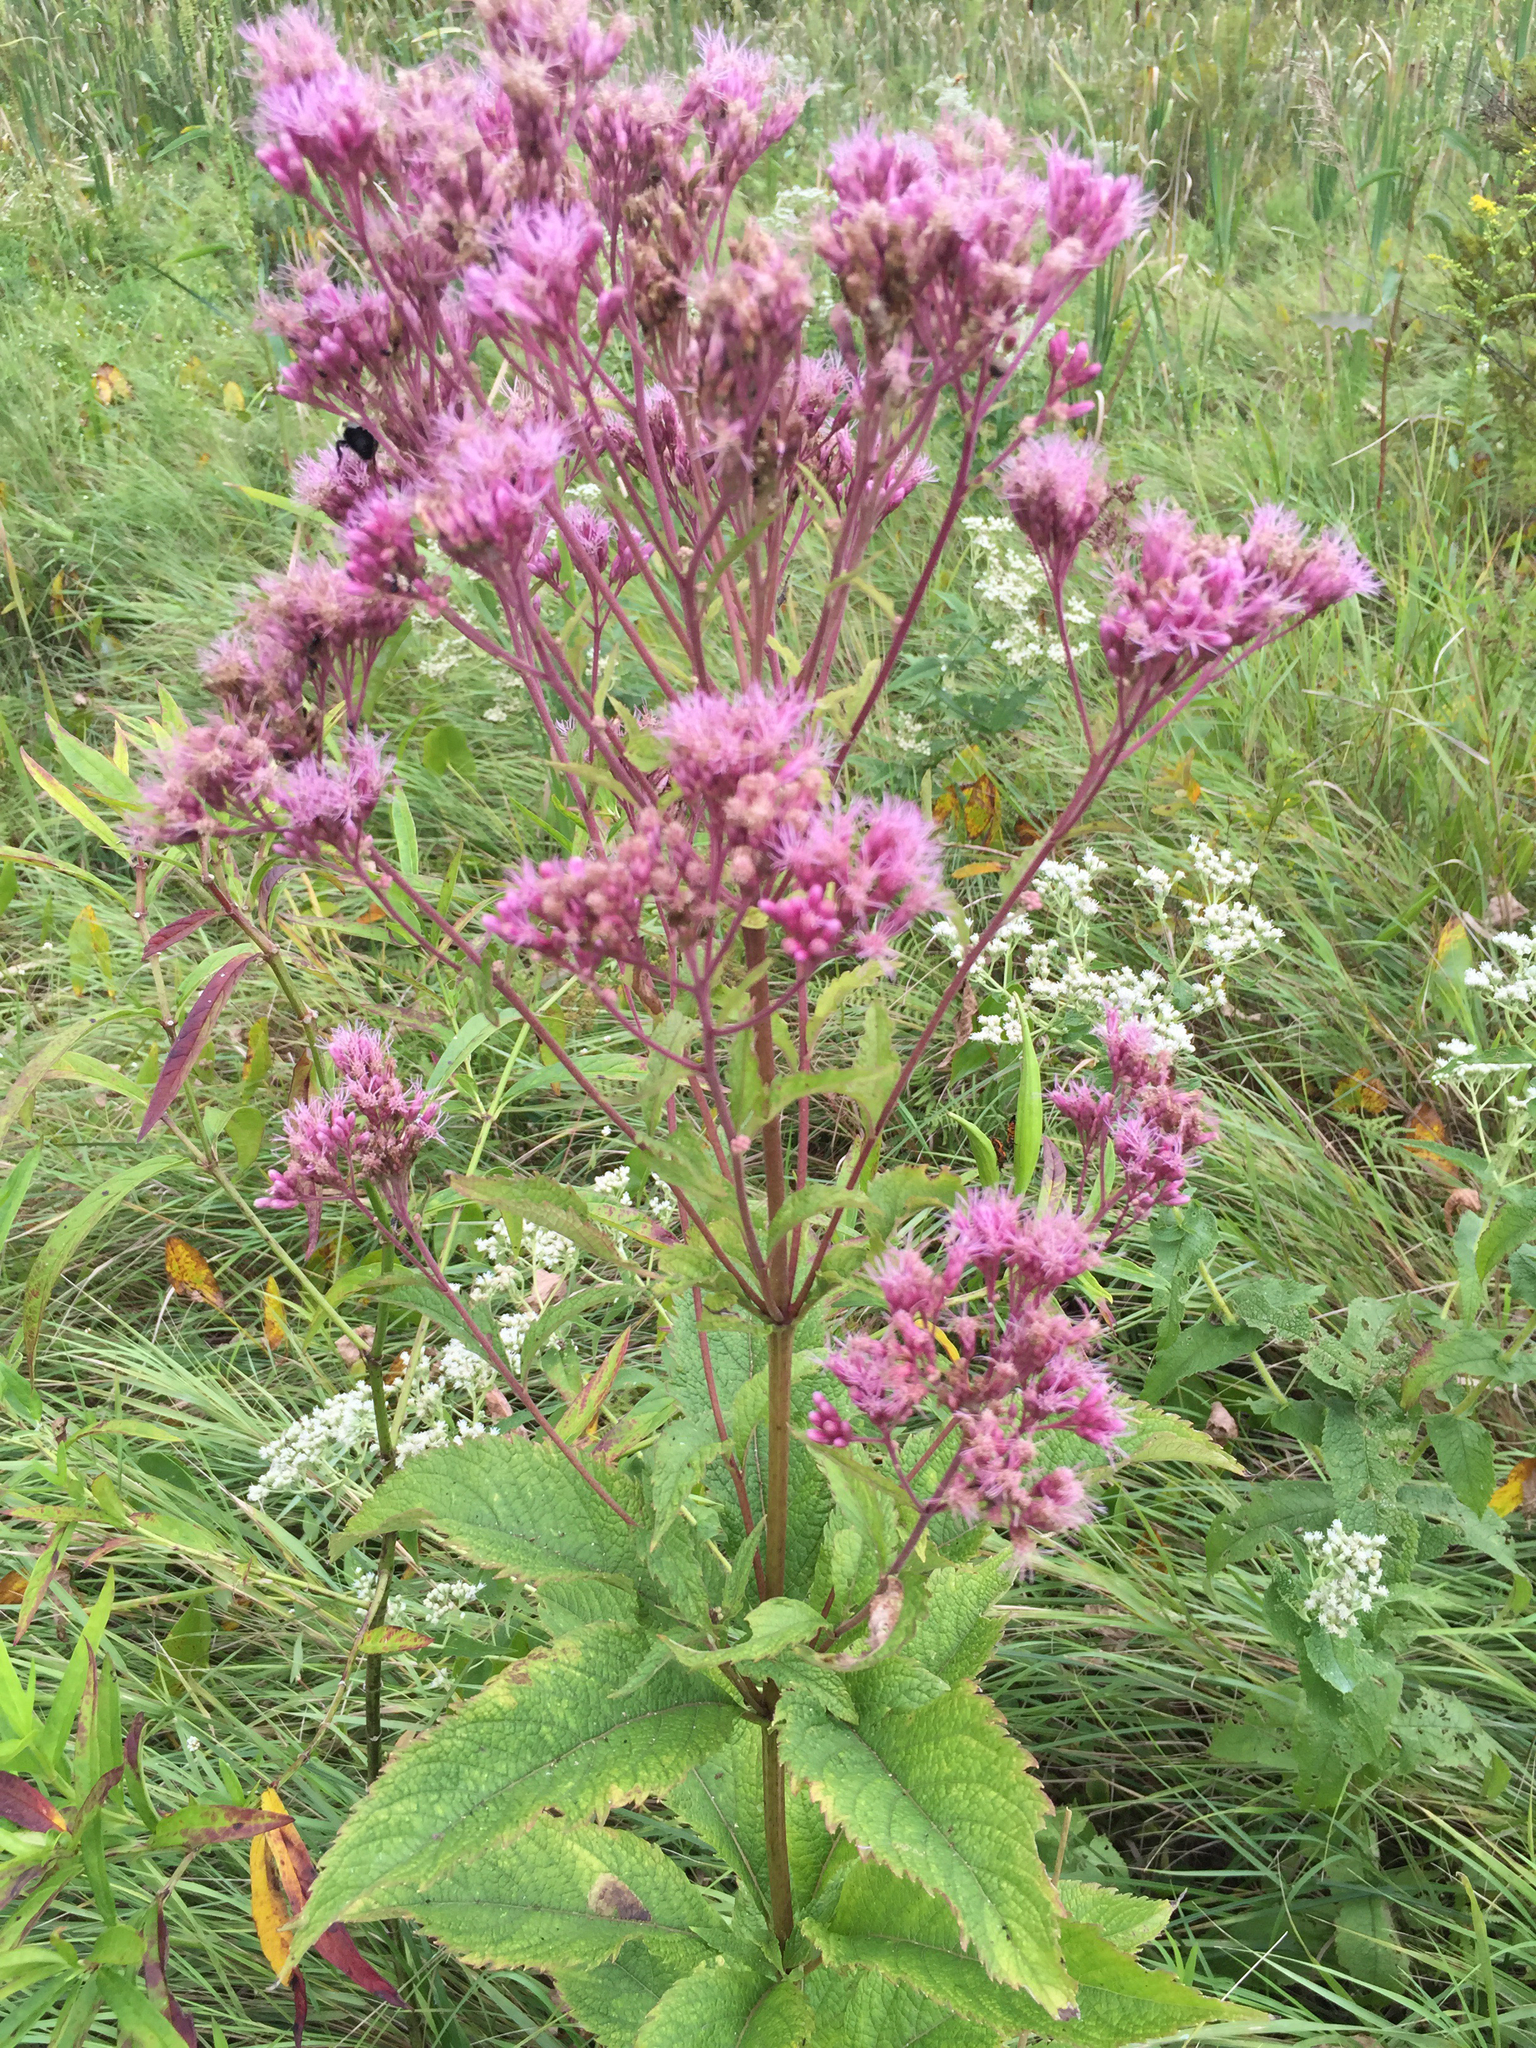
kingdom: Plantae
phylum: Tracheophyta
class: Magnoliopsida
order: Asterales
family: Asteraceae
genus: Eutrochium
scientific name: Eutrochium maculatum
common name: Spotted joe pye weed
